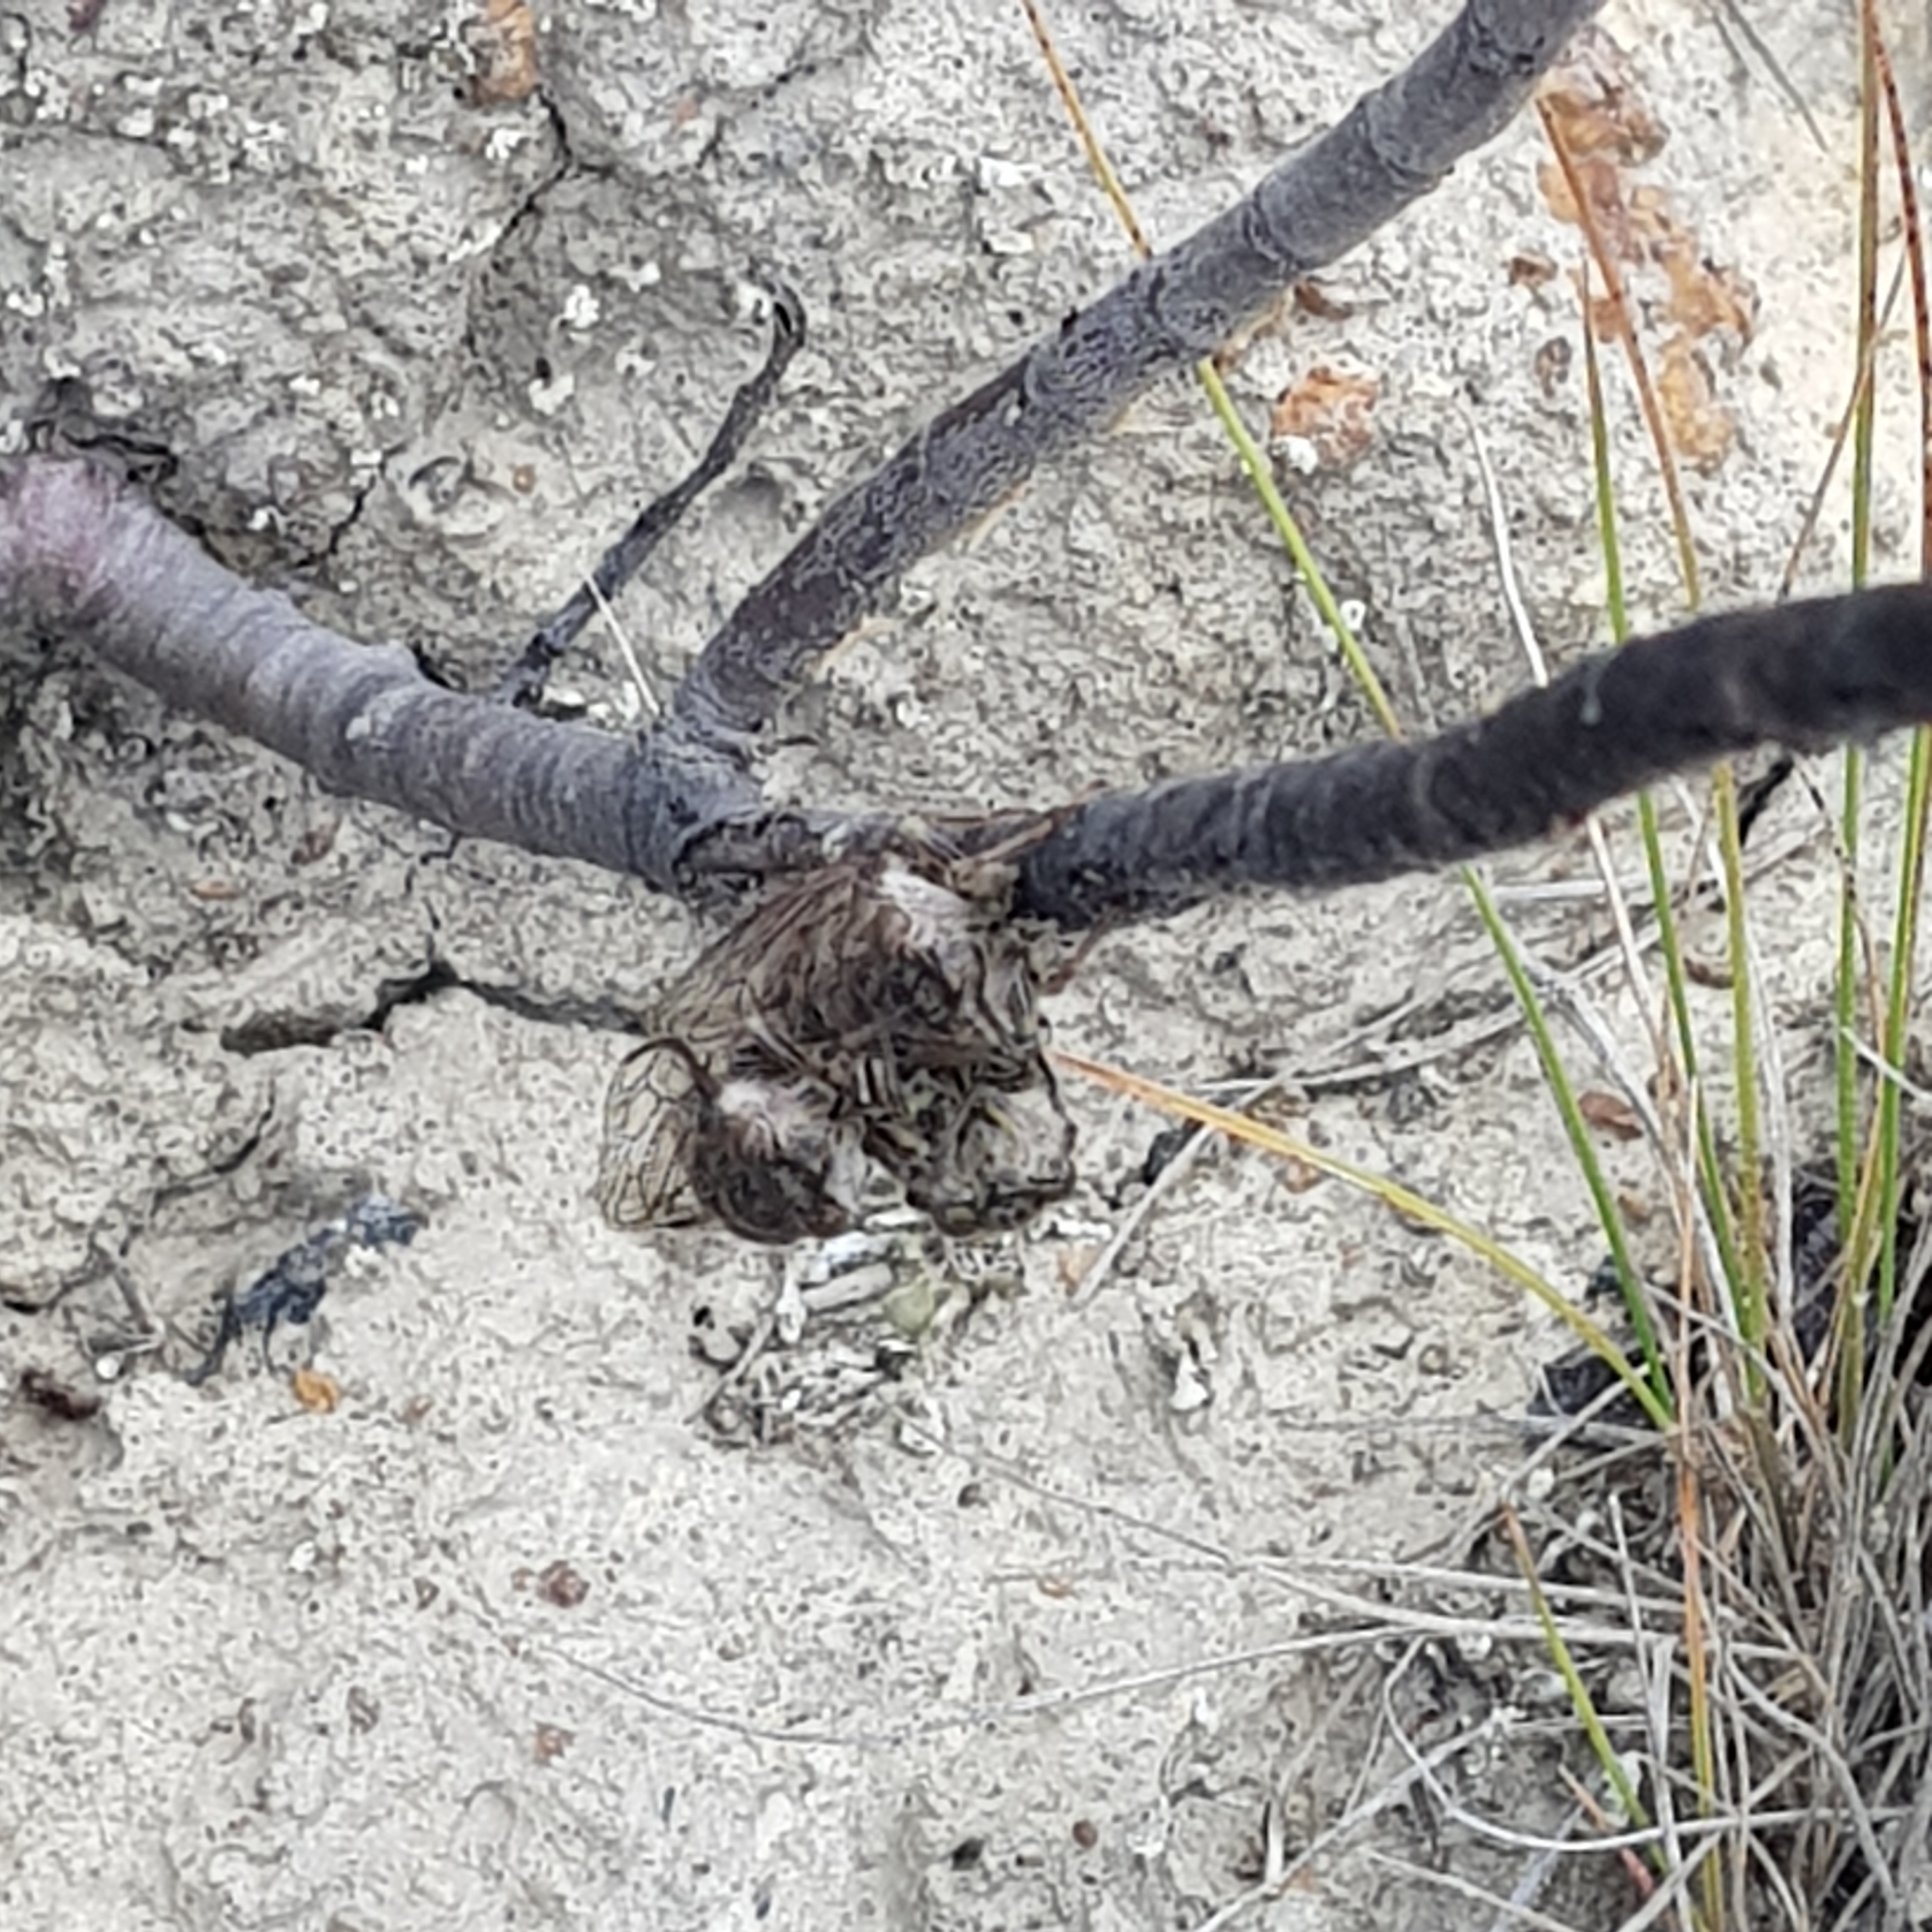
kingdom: Animalia
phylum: Arthropoda
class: Insecta
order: Hemiptera
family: Cicadidae
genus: Notopsalta
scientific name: Notopsalta sericea
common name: Clay bank cicada
